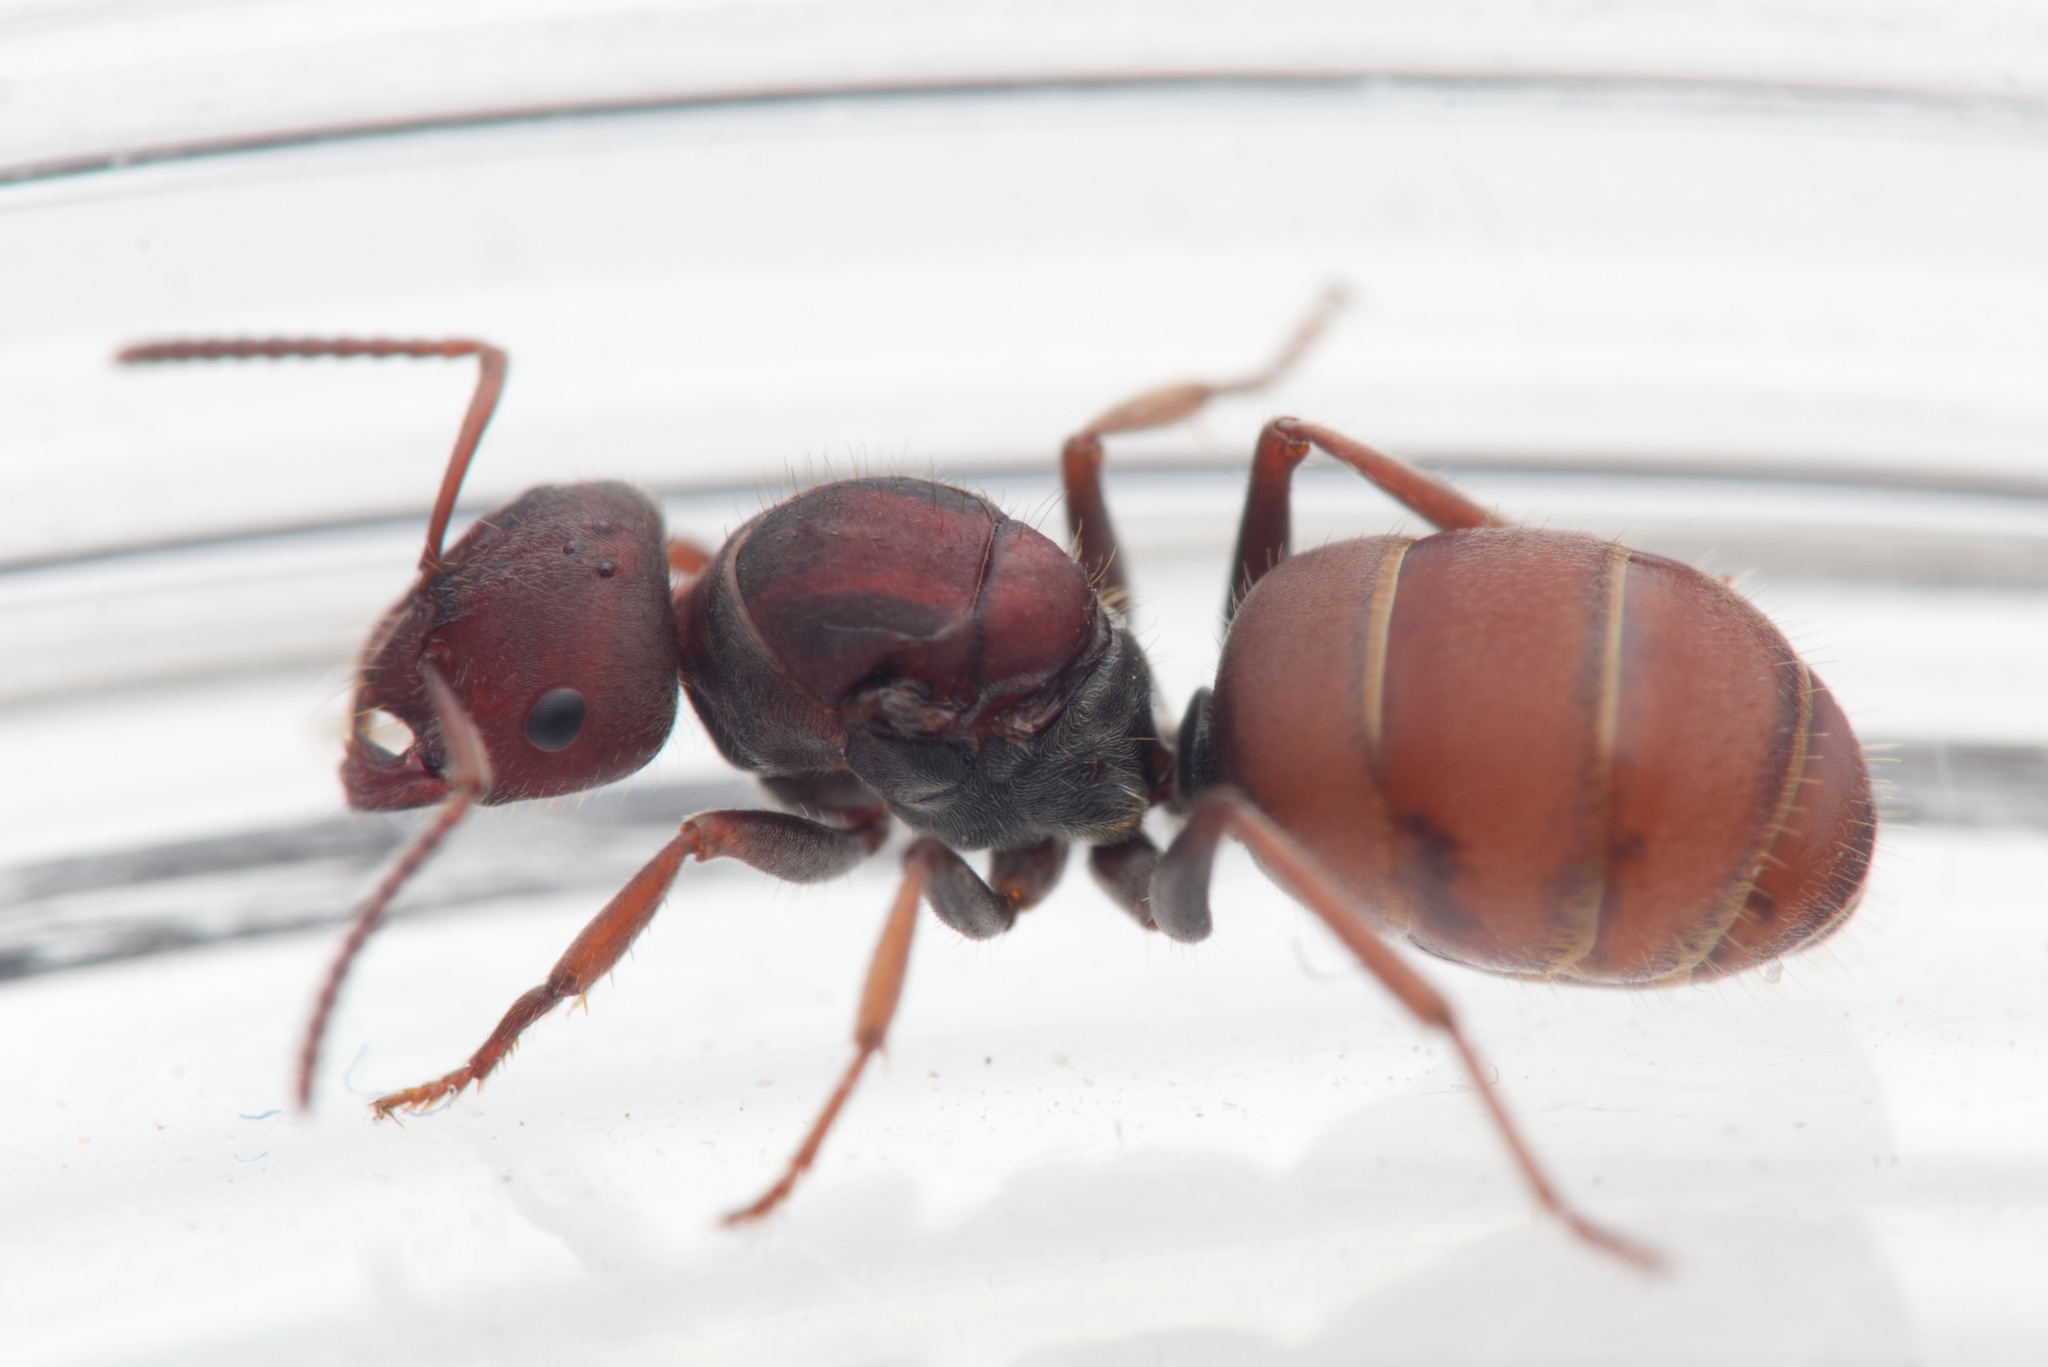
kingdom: Animalia
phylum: Arthropoda
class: Insecta
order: Hymenoptera
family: Formicidae
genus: Melophorus
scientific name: Melophorus gibbosus
